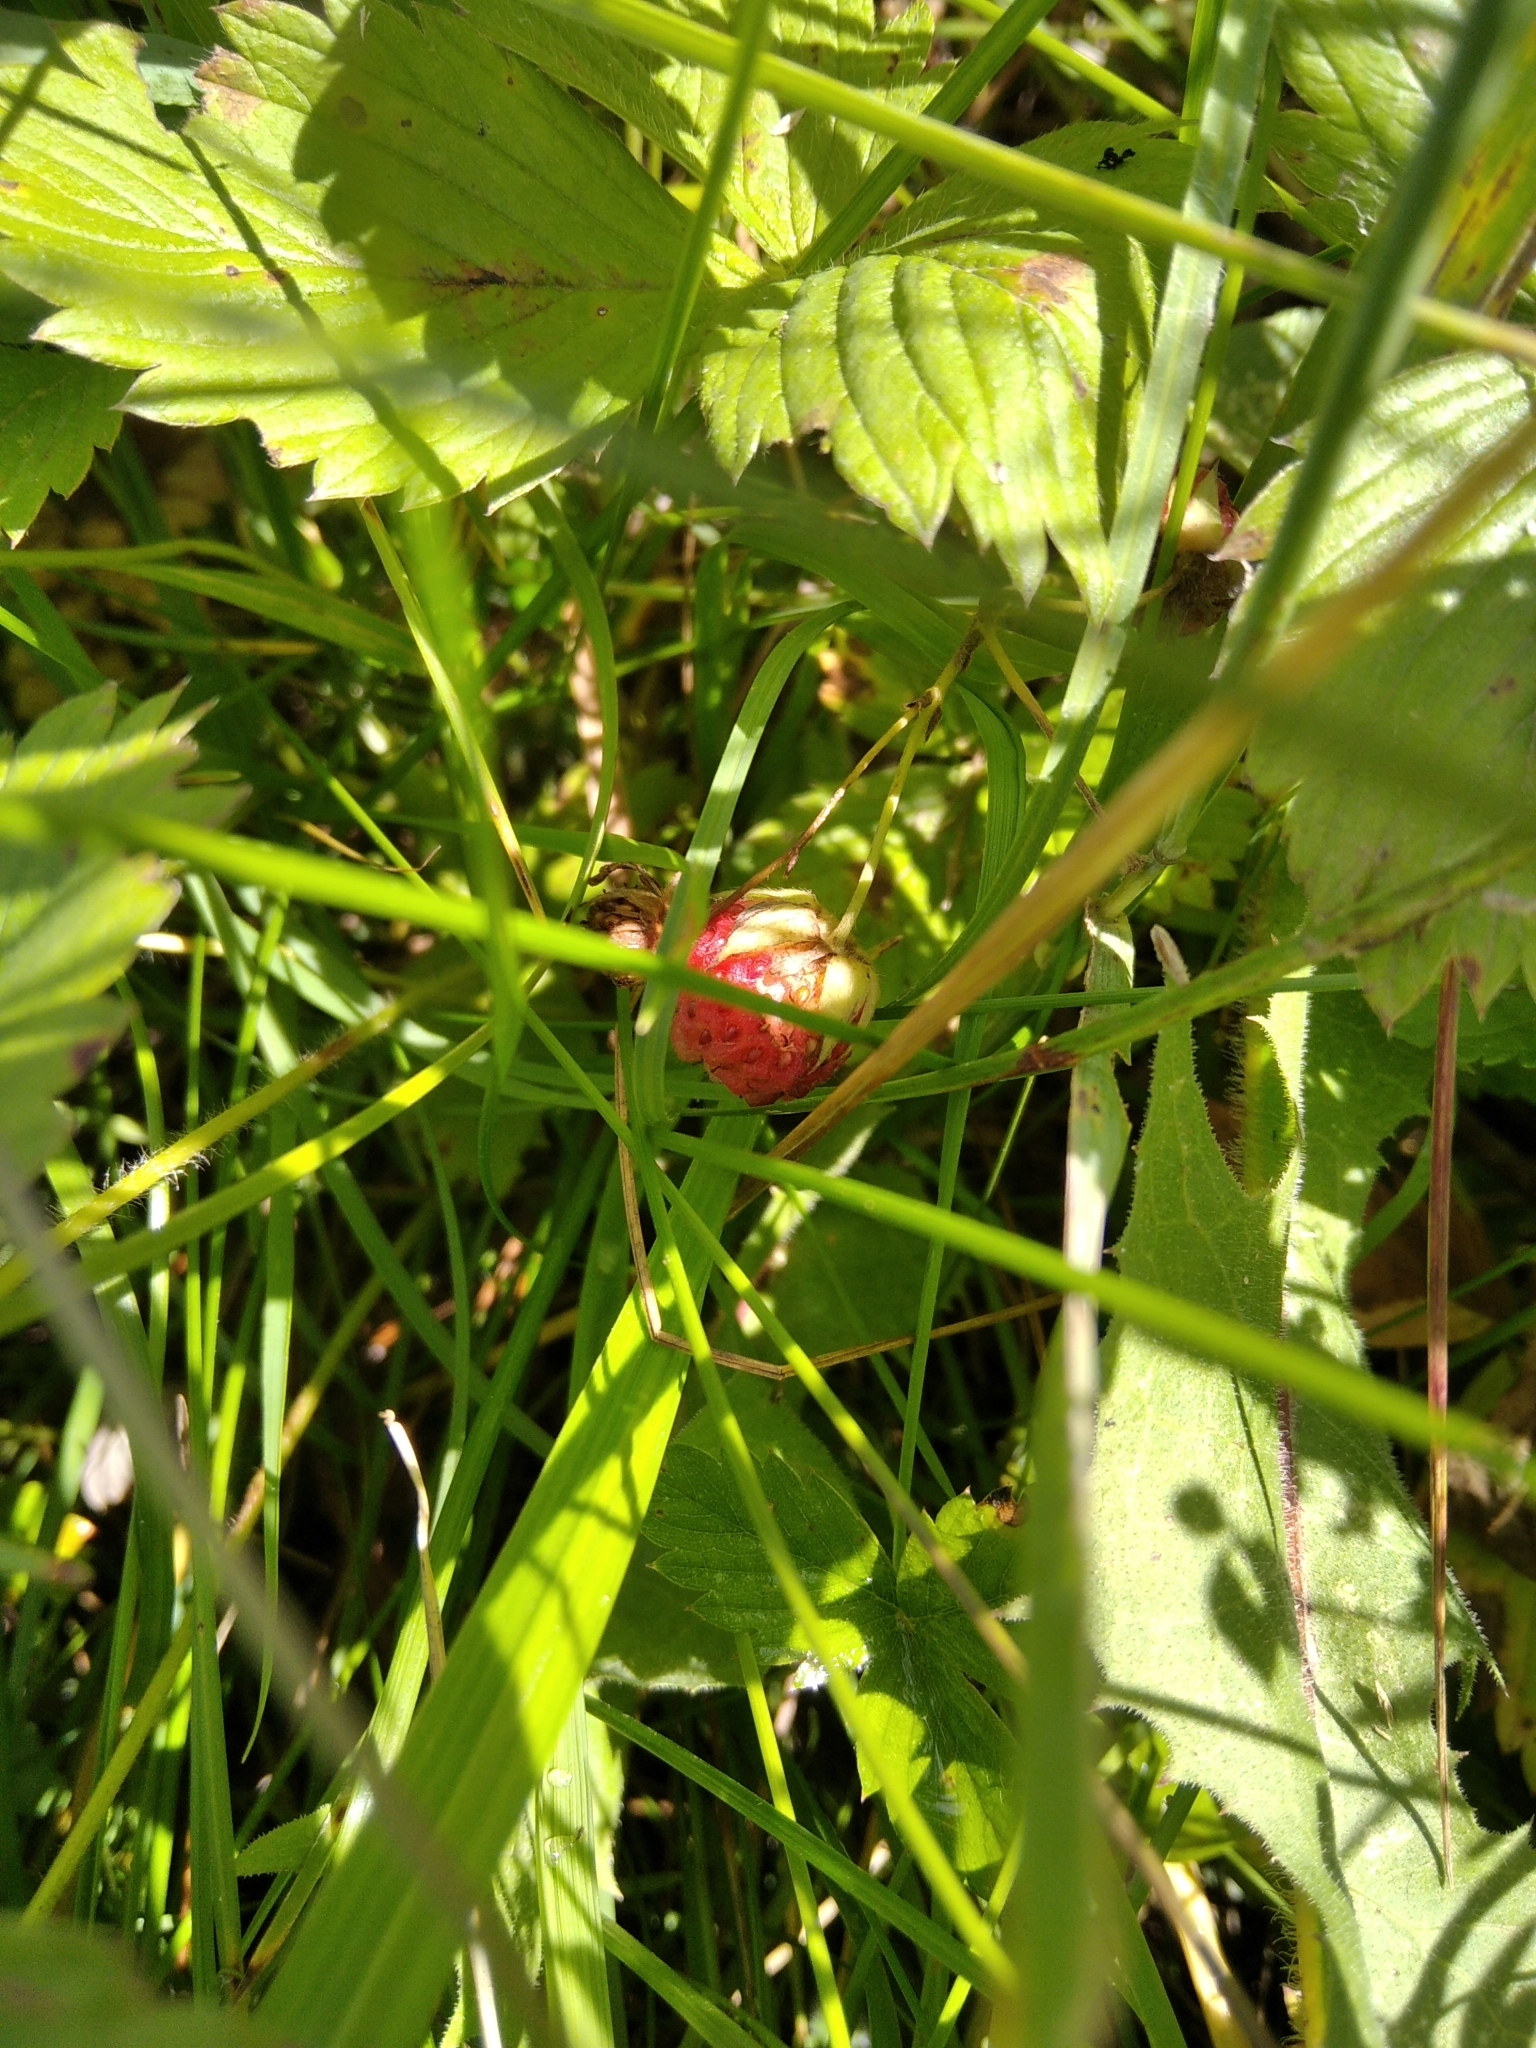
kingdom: Plantae
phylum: Tracheophyta
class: Magnoliopsida
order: Rosales
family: Rosaceae
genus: Fragaria
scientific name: Fragaria viridis
